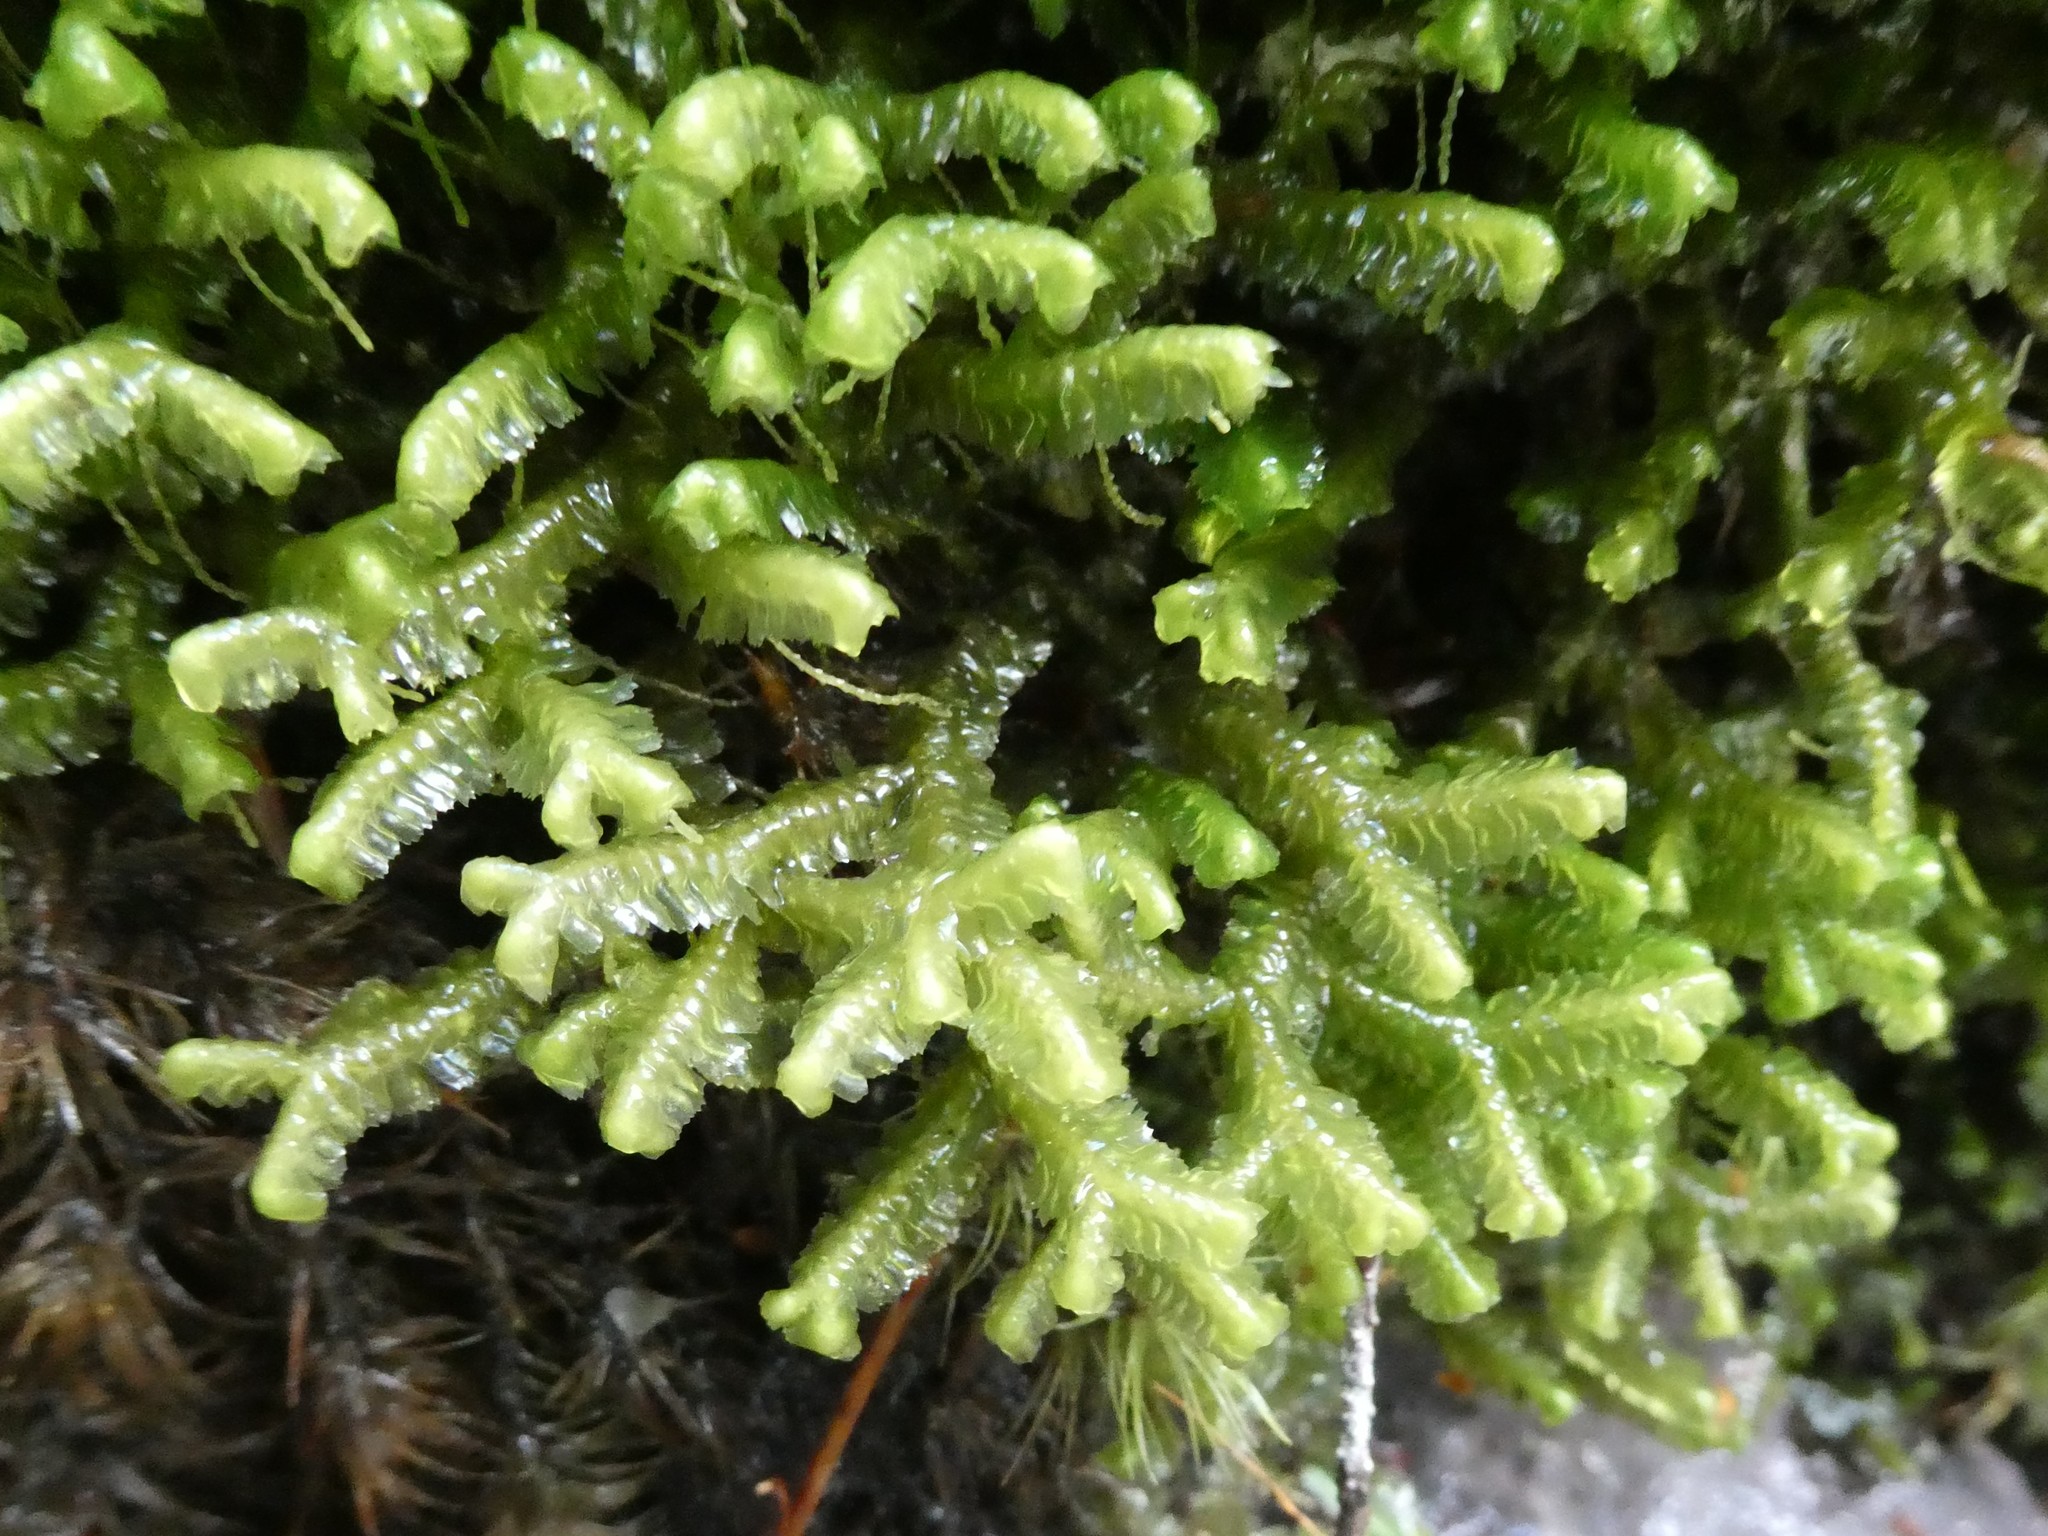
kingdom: Plantae
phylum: Marchantiophyta
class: Jungermanniopsida
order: Jungermanniales
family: Lepidoziaceae
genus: Bazzania
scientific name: Bazzania trilobata
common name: Three-lobed whipwort
